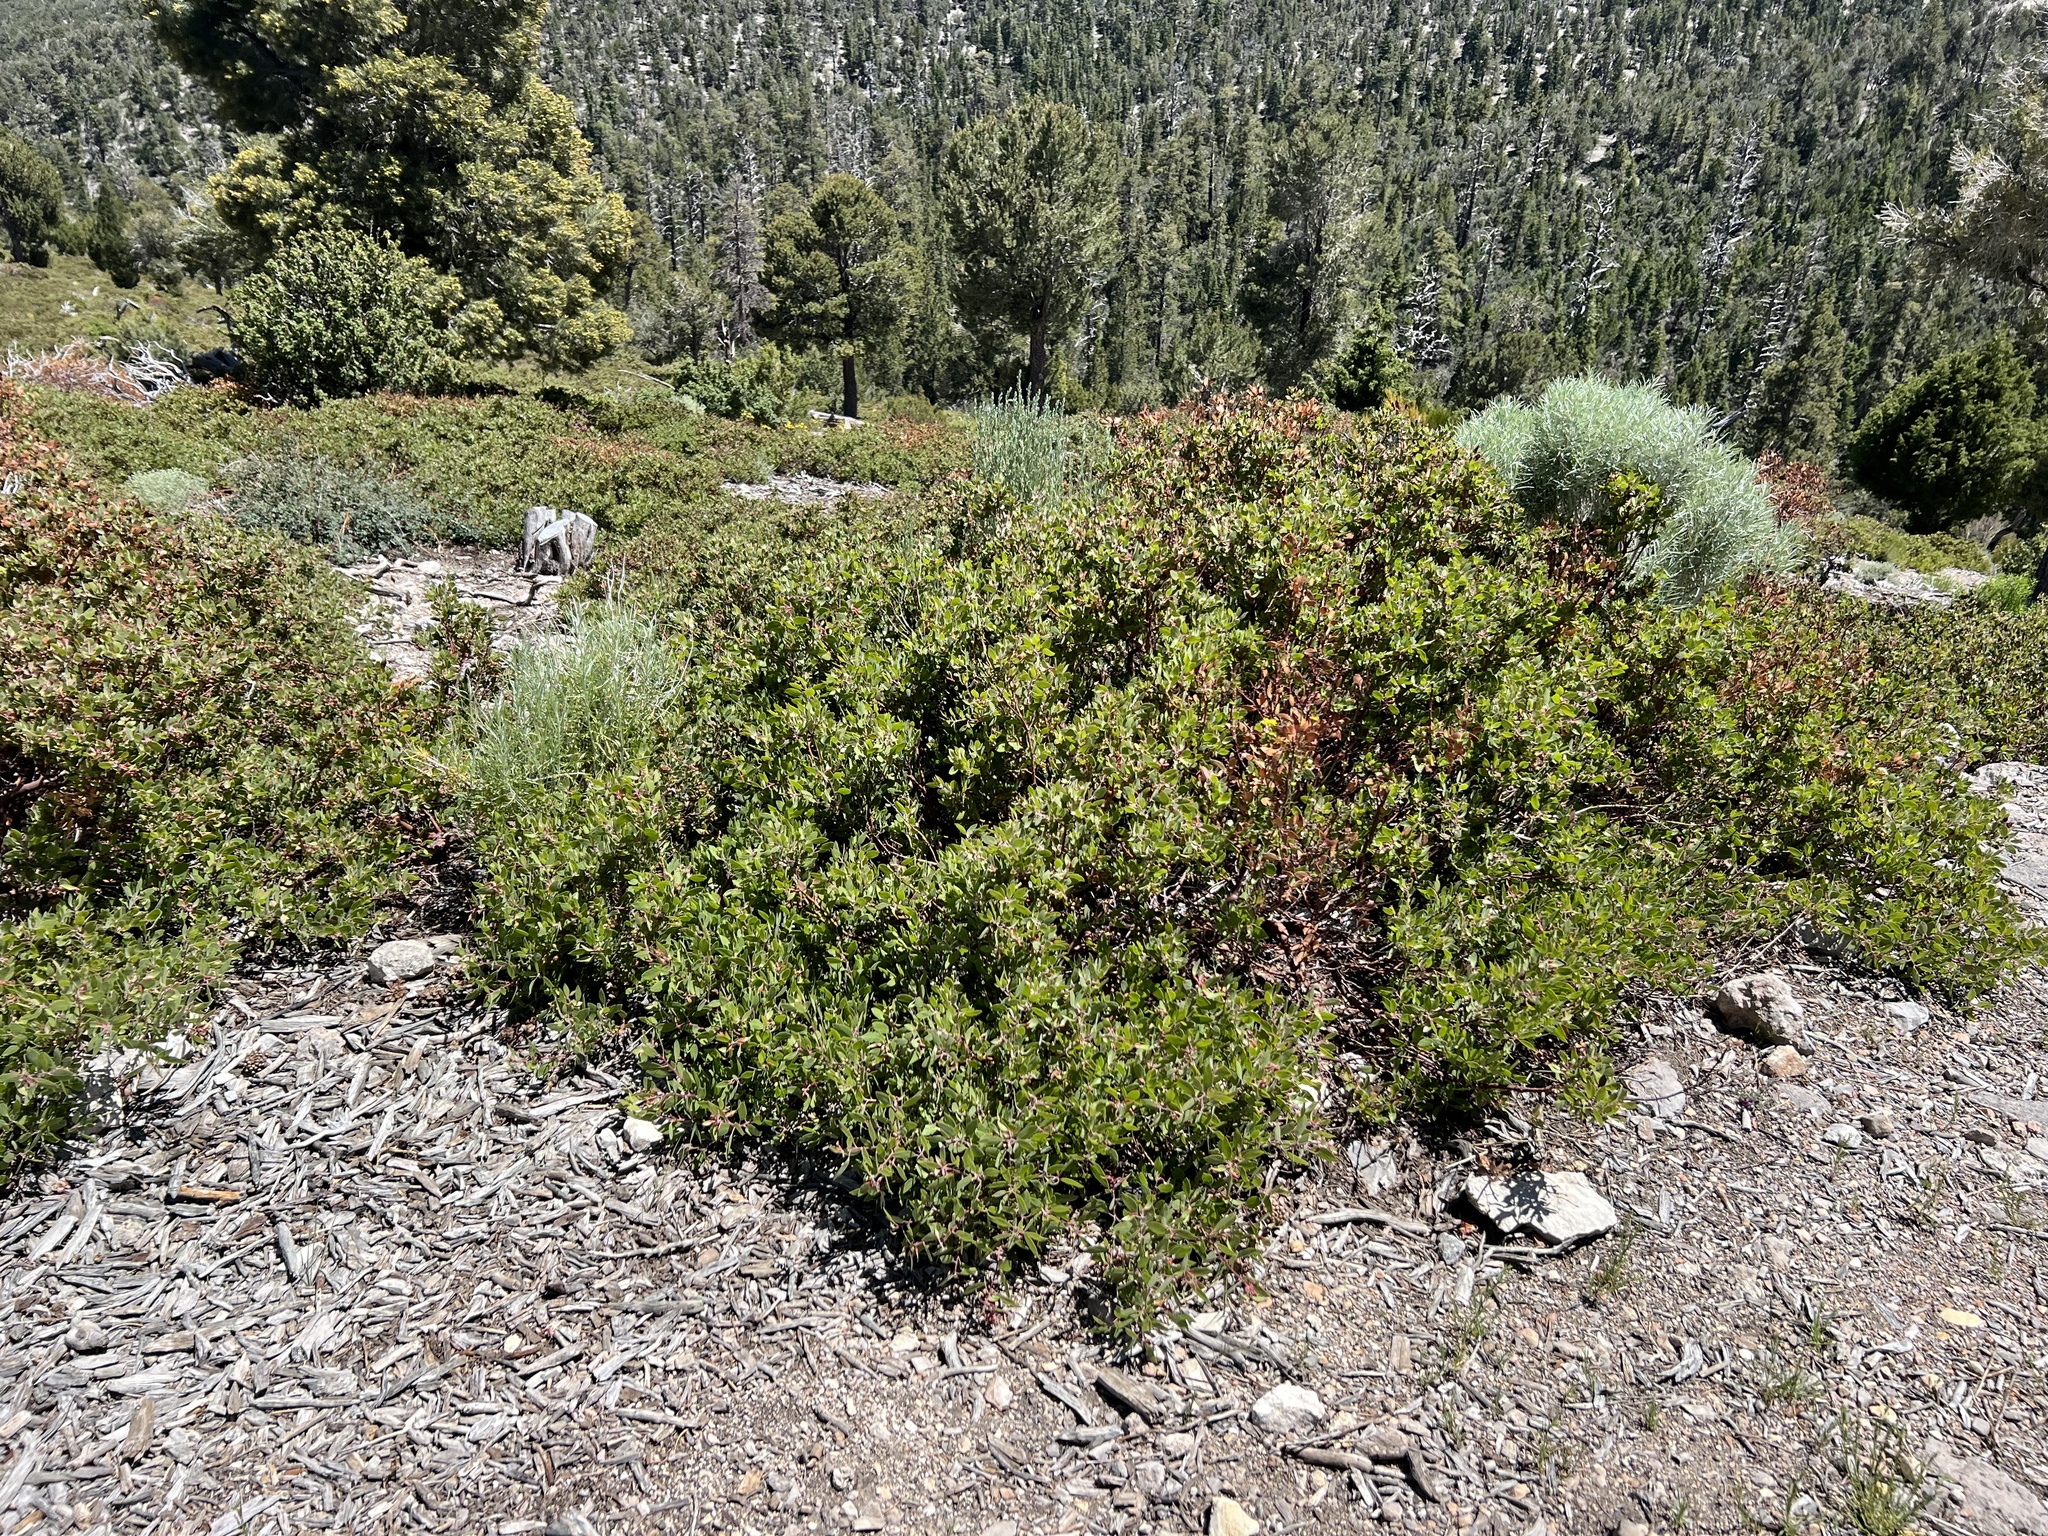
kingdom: Plantae
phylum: Tracheophyta
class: Magnoliopsida
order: Ericales
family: Ericaceae
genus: Arctostaphylos
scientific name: Arctostaphylos pungens
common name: Mexican manzanita
